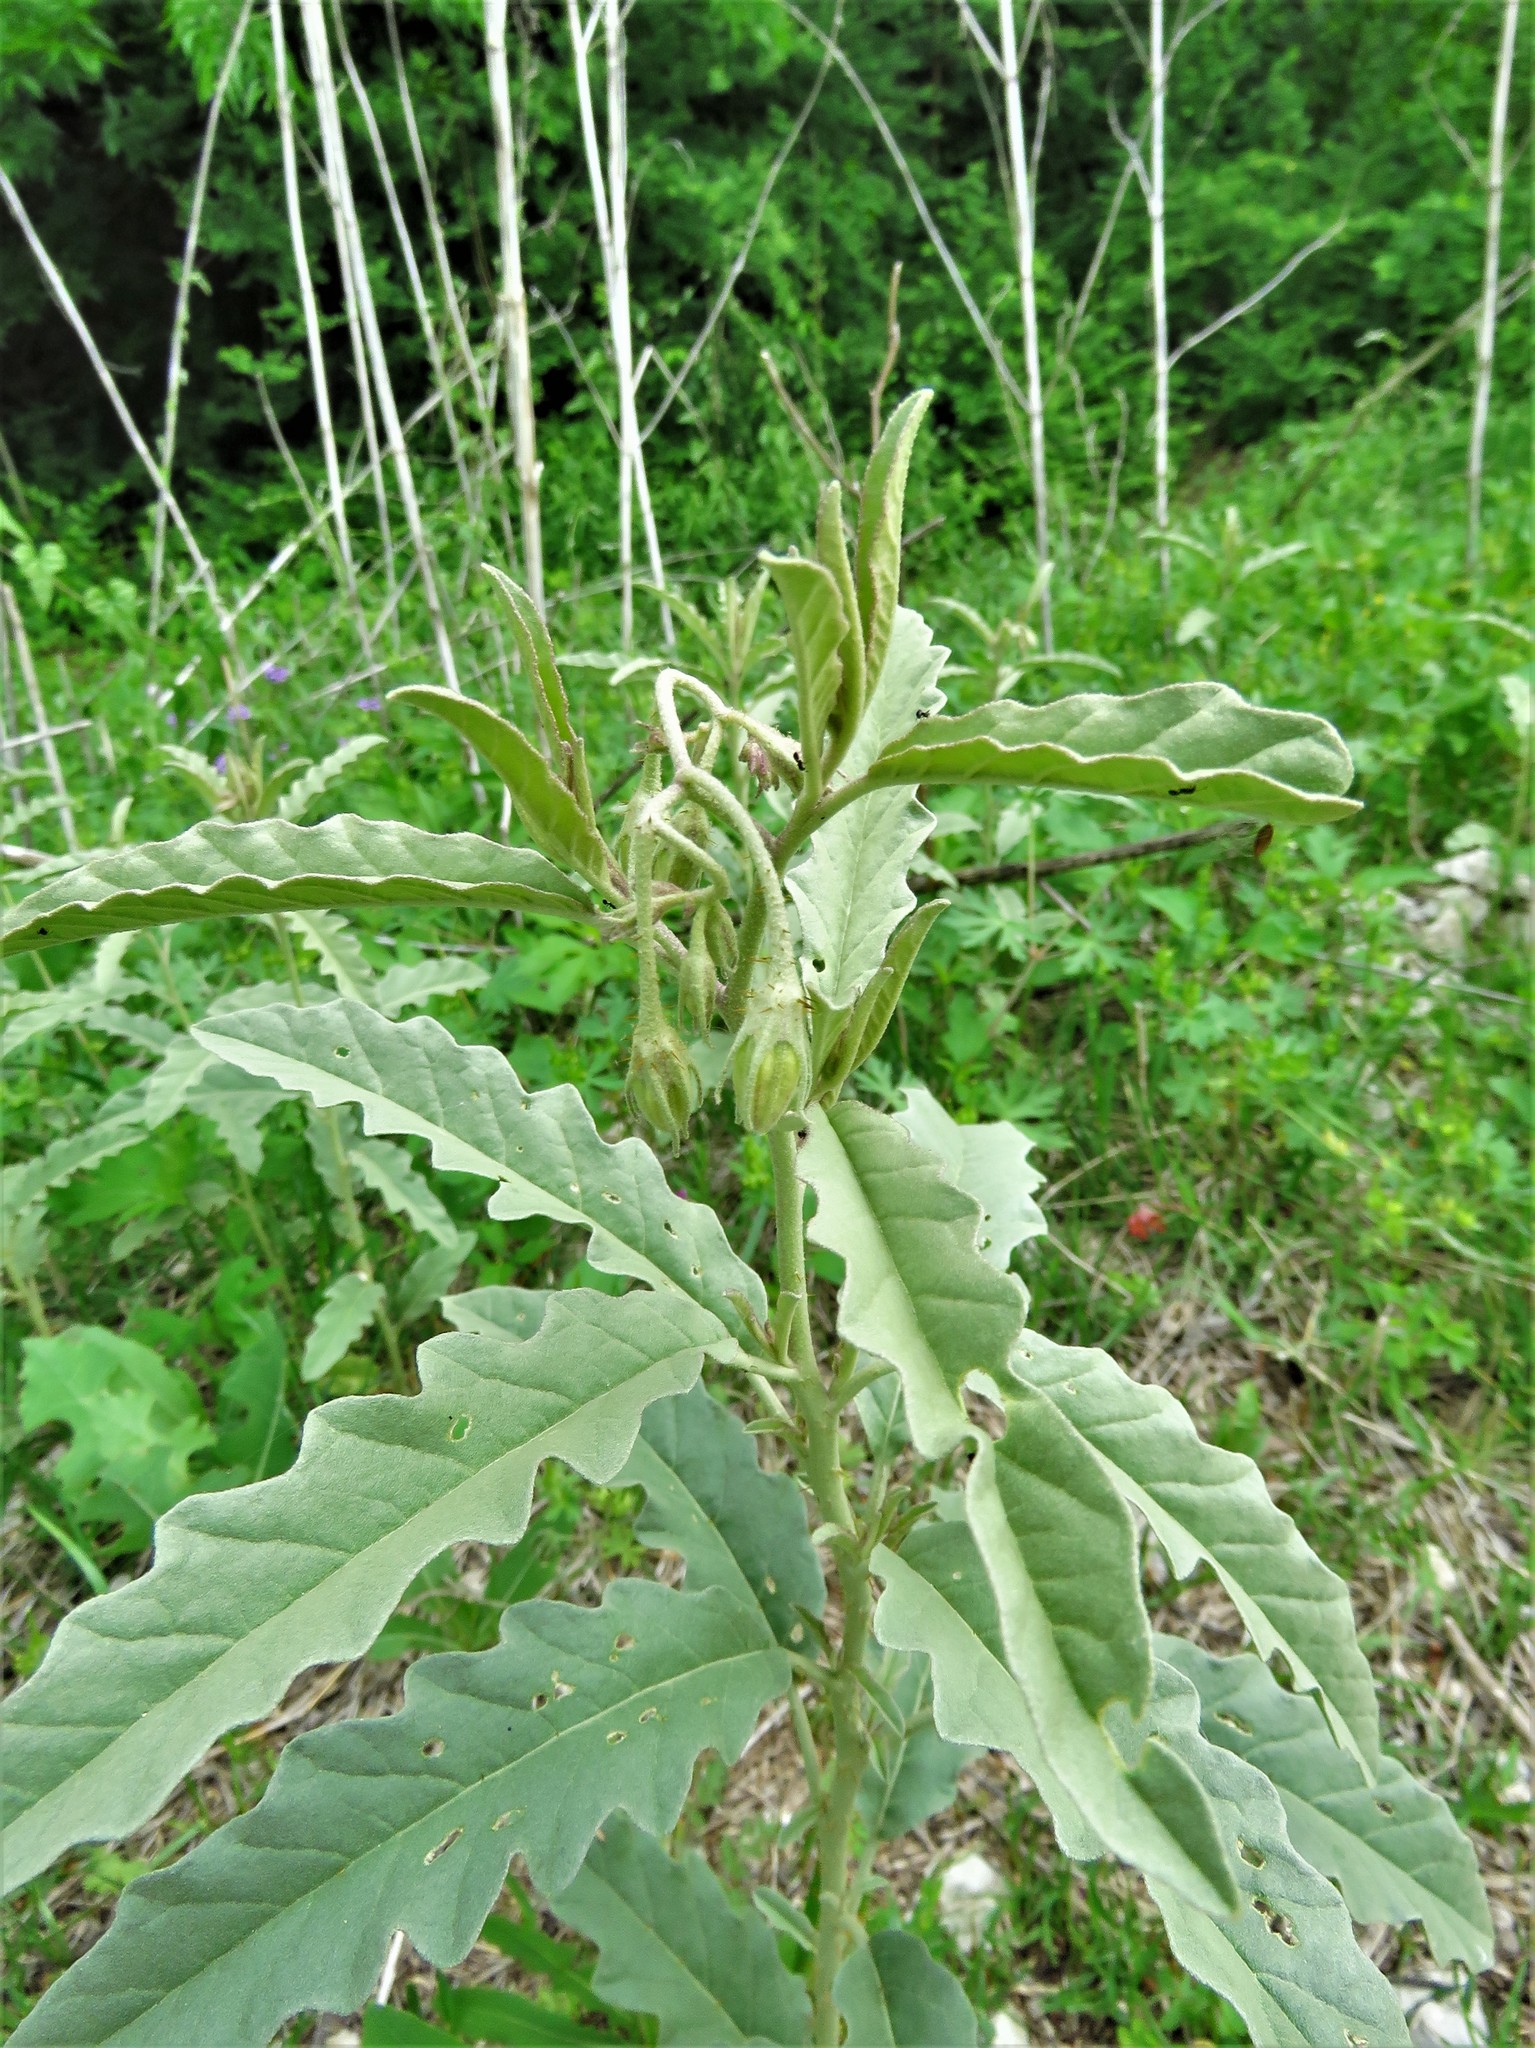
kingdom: Plantae
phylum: Tracheophyta
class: Magnoliopsida
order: Solanales
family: Solanaceae
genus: Solanum
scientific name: Solanum elaeagnifolium
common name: Silverleaf nightshade
